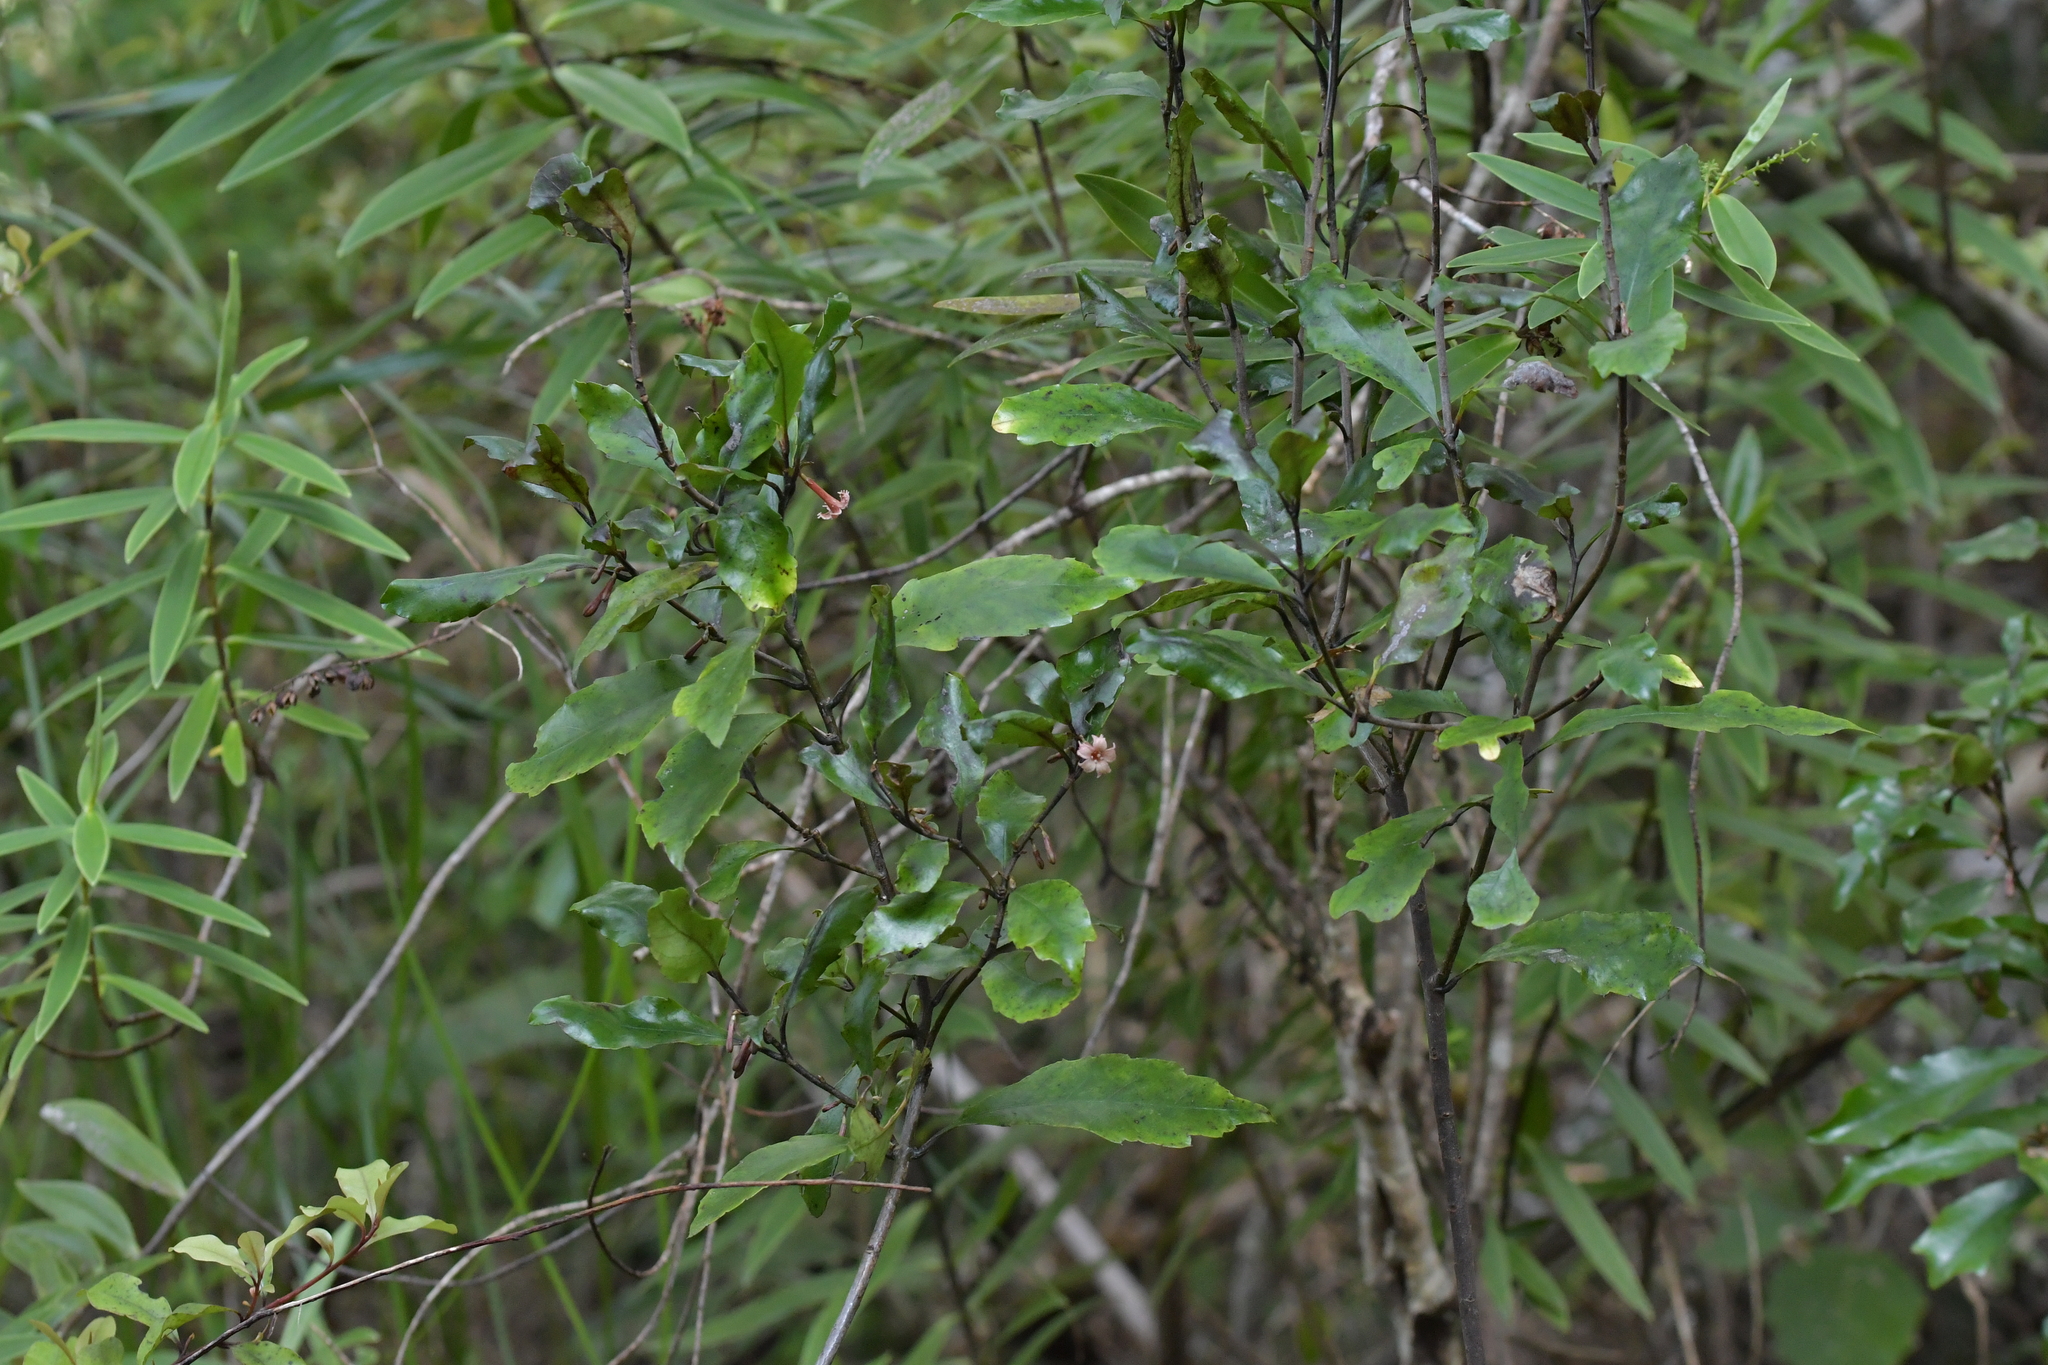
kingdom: Plantae
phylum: Tracheophyta
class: Magnoliopsida
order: Asterales
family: Alseuosmiaceae
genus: Alseuosmia
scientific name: Alseuosmia banksii
